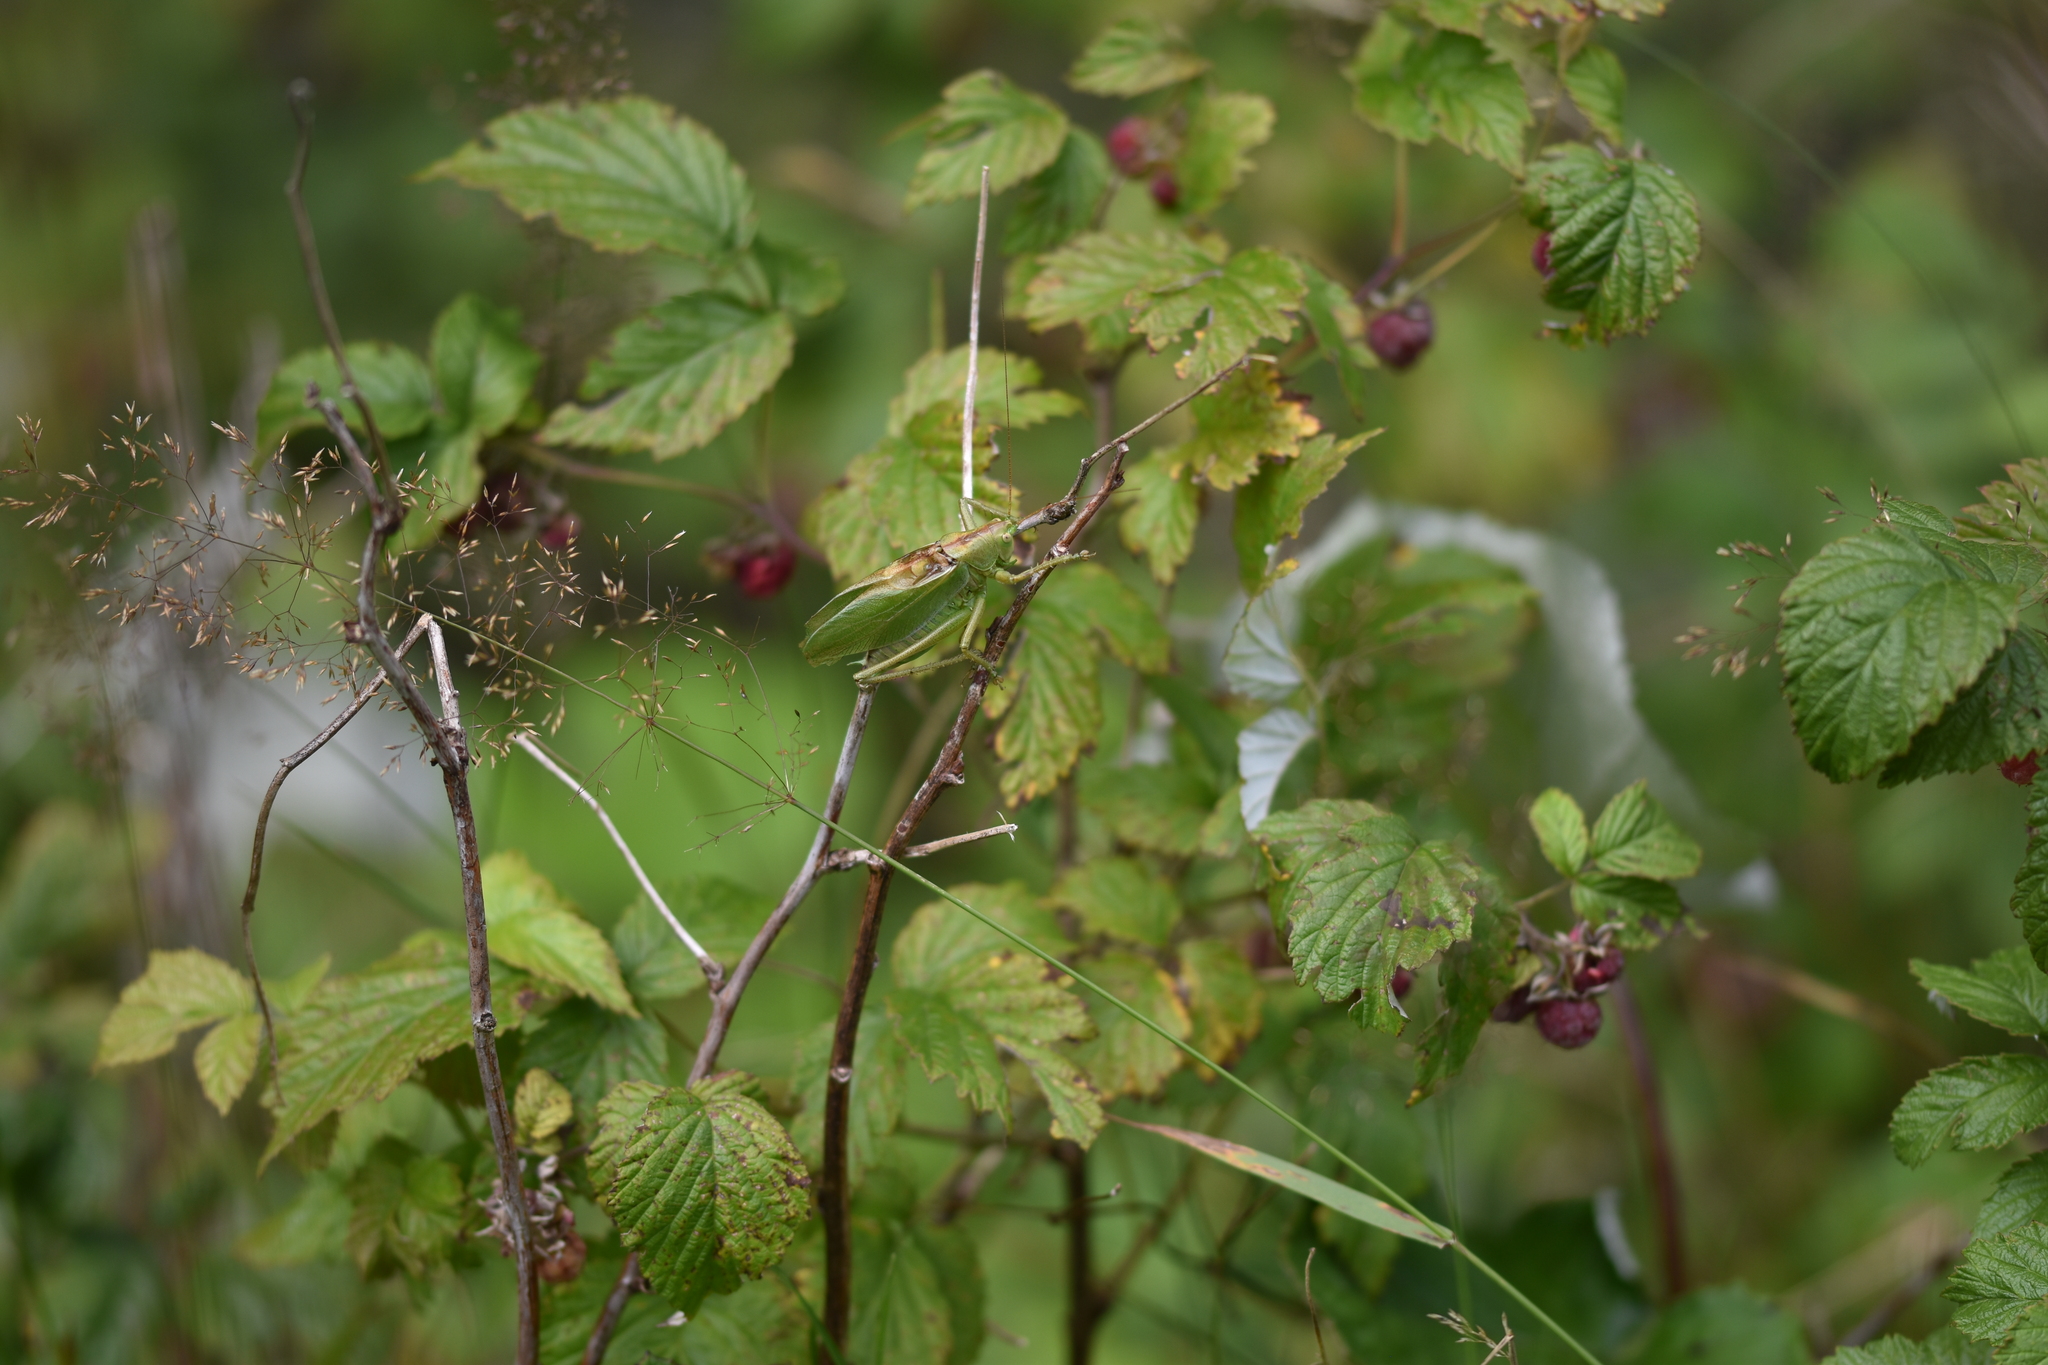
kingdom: Animalia
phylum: Arthropoda
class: Insecta
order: Orthoptera
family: Tettigoniidae
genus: Tettigonia
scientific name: Tettigonia cantans
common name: Upland green bush-cricket
